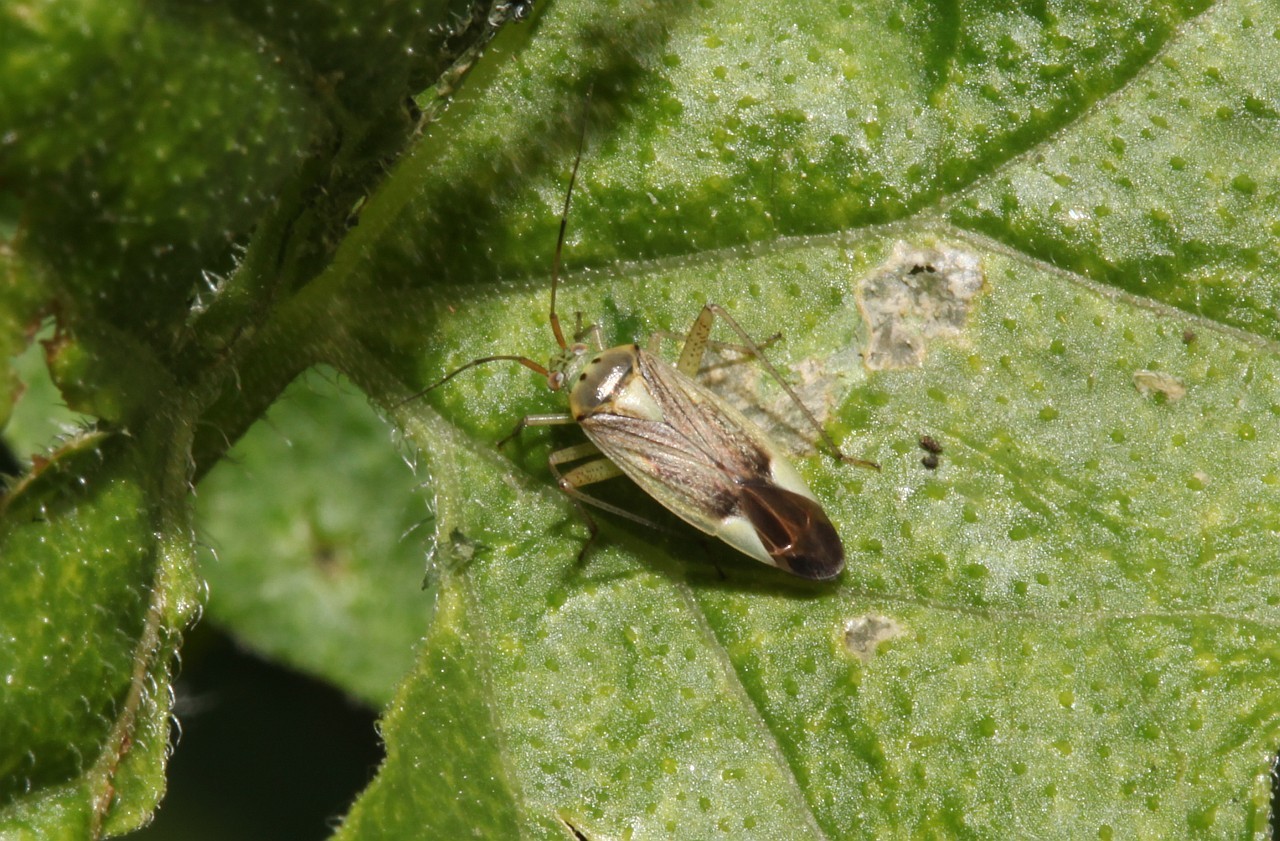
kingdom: Animalia
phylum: Arthropoda
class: Insecta
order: Hemiptera
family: Miridae
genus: Closterotomus
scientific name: Closterotomus trivialis
